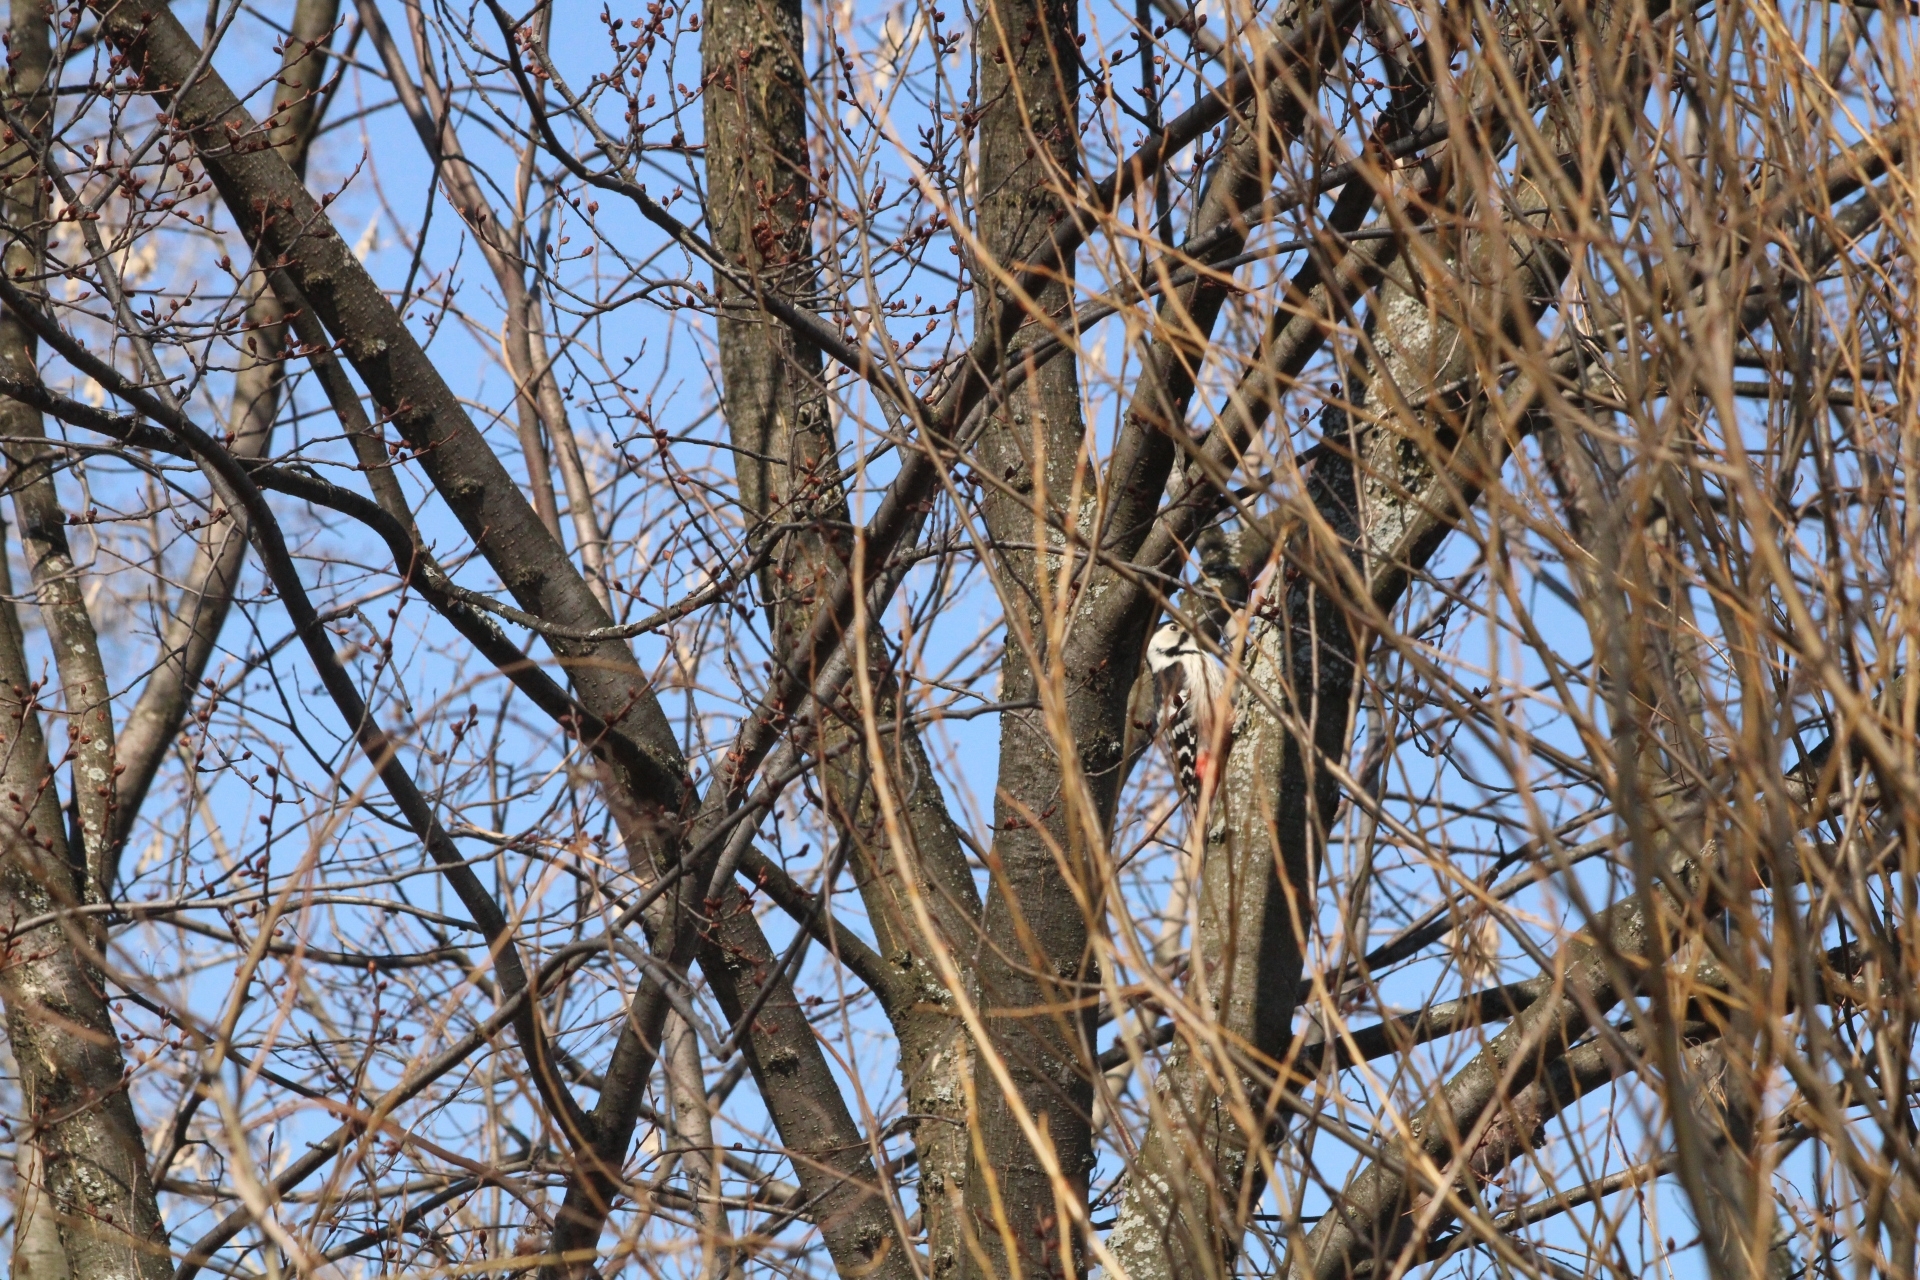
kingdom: Animalia
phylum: Chordata
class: Aves
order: Piciformes
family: Picidae
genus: Dendrocopos
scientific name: Dendrocopos leucotos
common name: White-backed woodpecker
